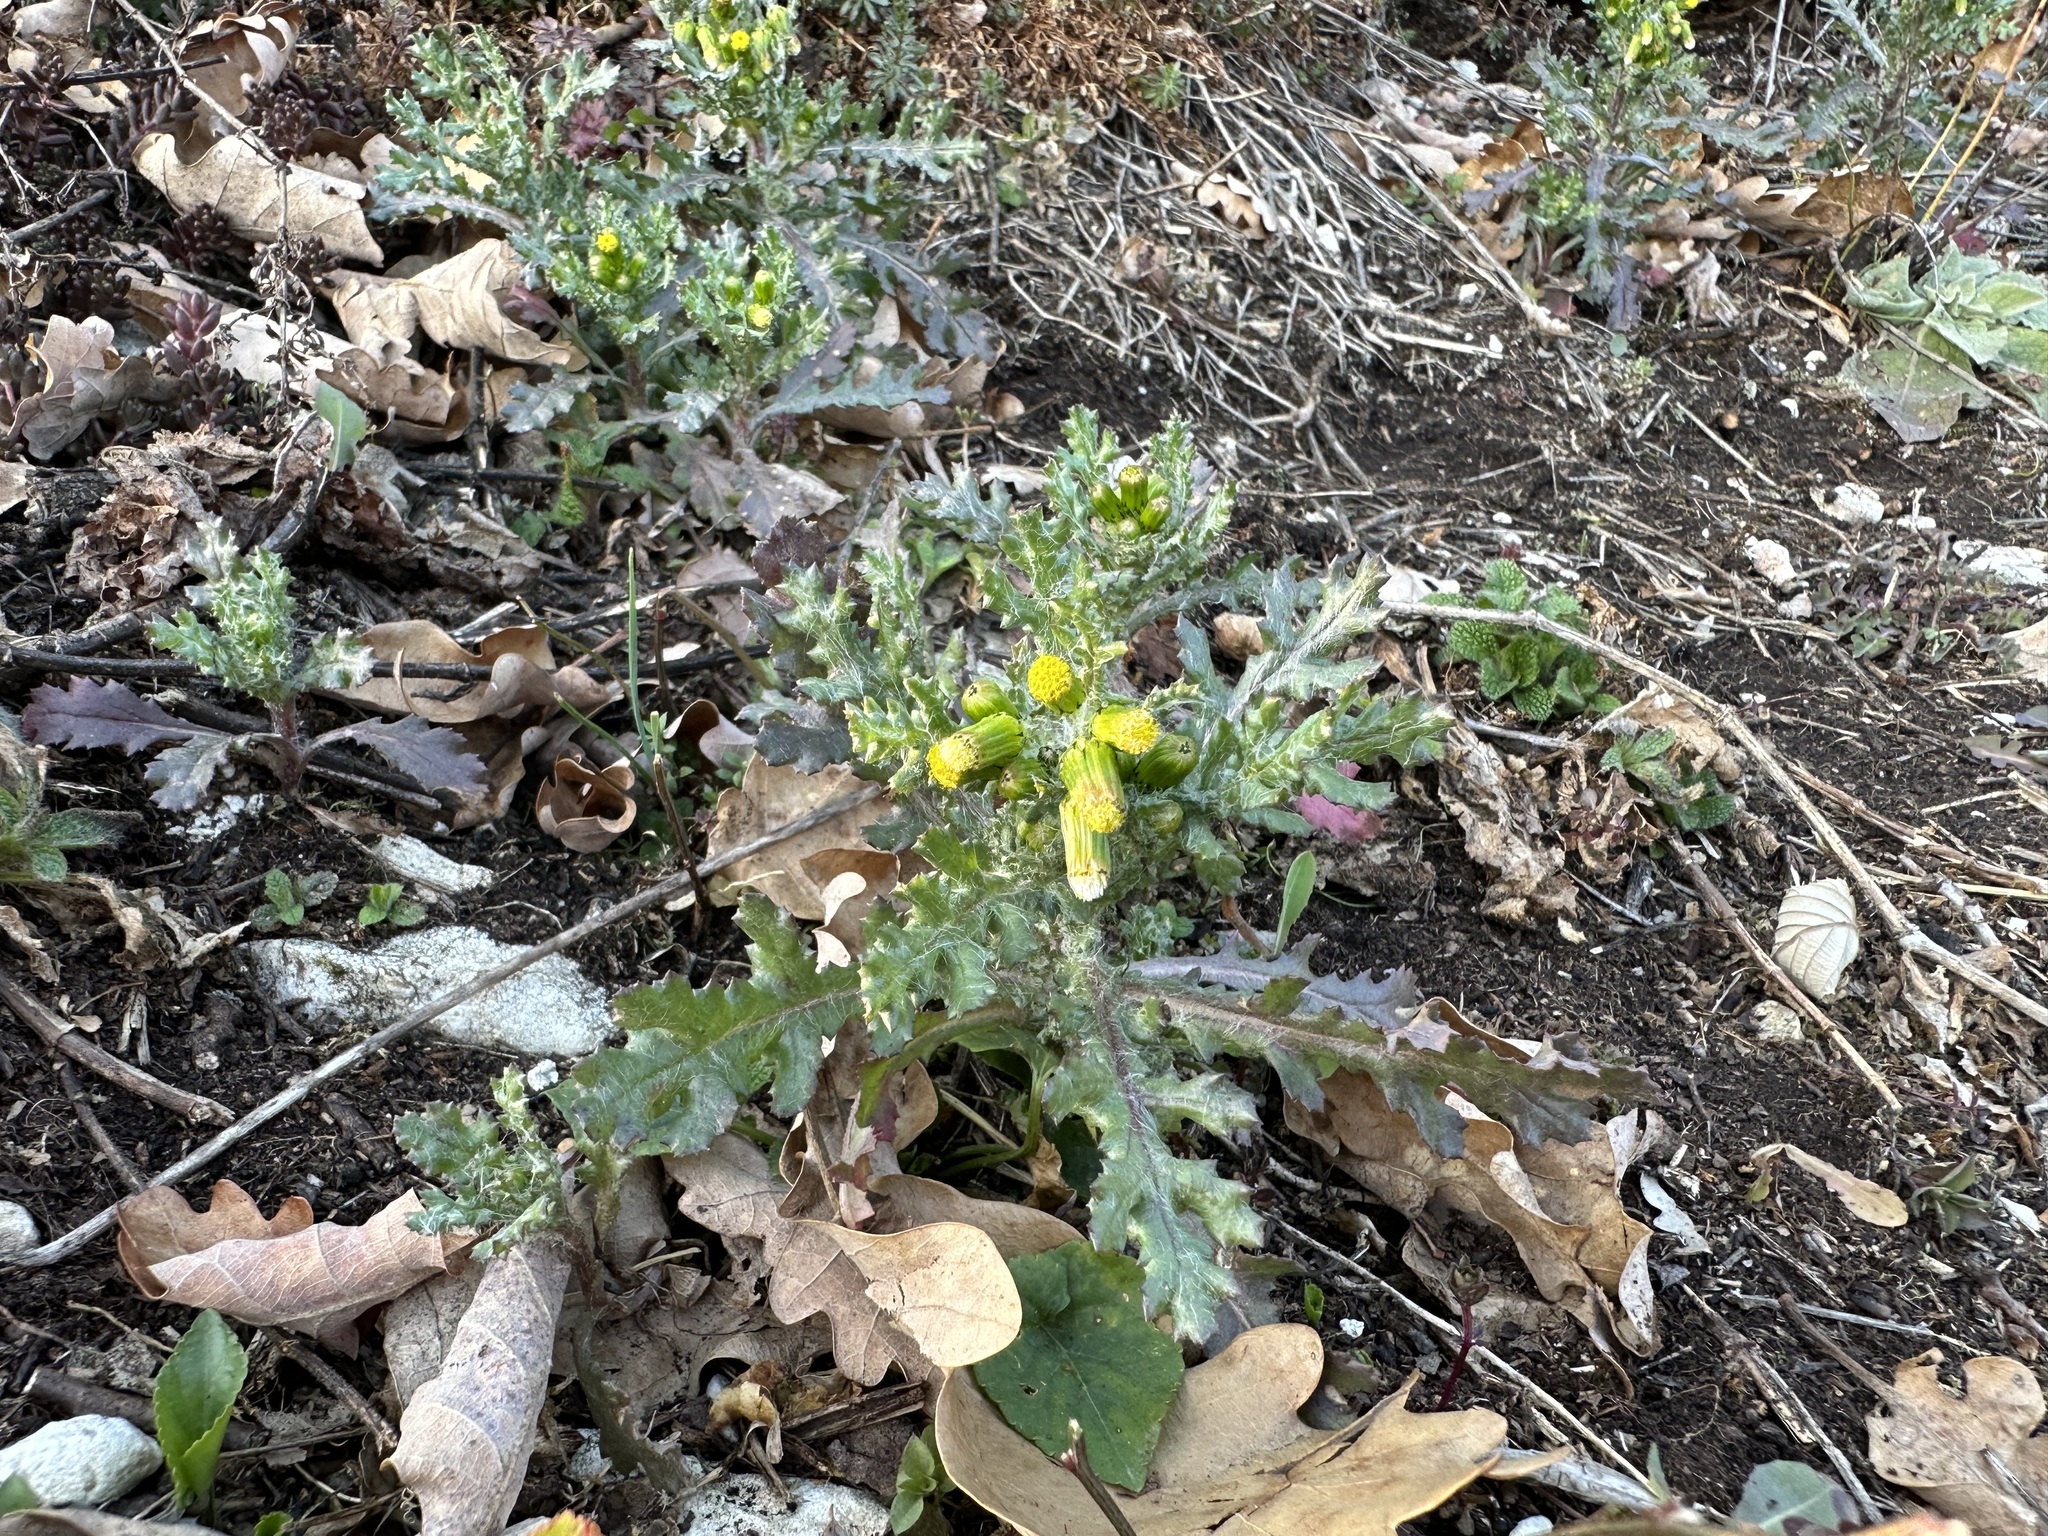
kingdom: Plantae
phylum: Tracheophyta
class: Magnoliopsida
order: Asterales
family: Asteraceae
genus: Senecio
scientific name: Senecio vulgaris
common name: Old-man-in-the-spring
